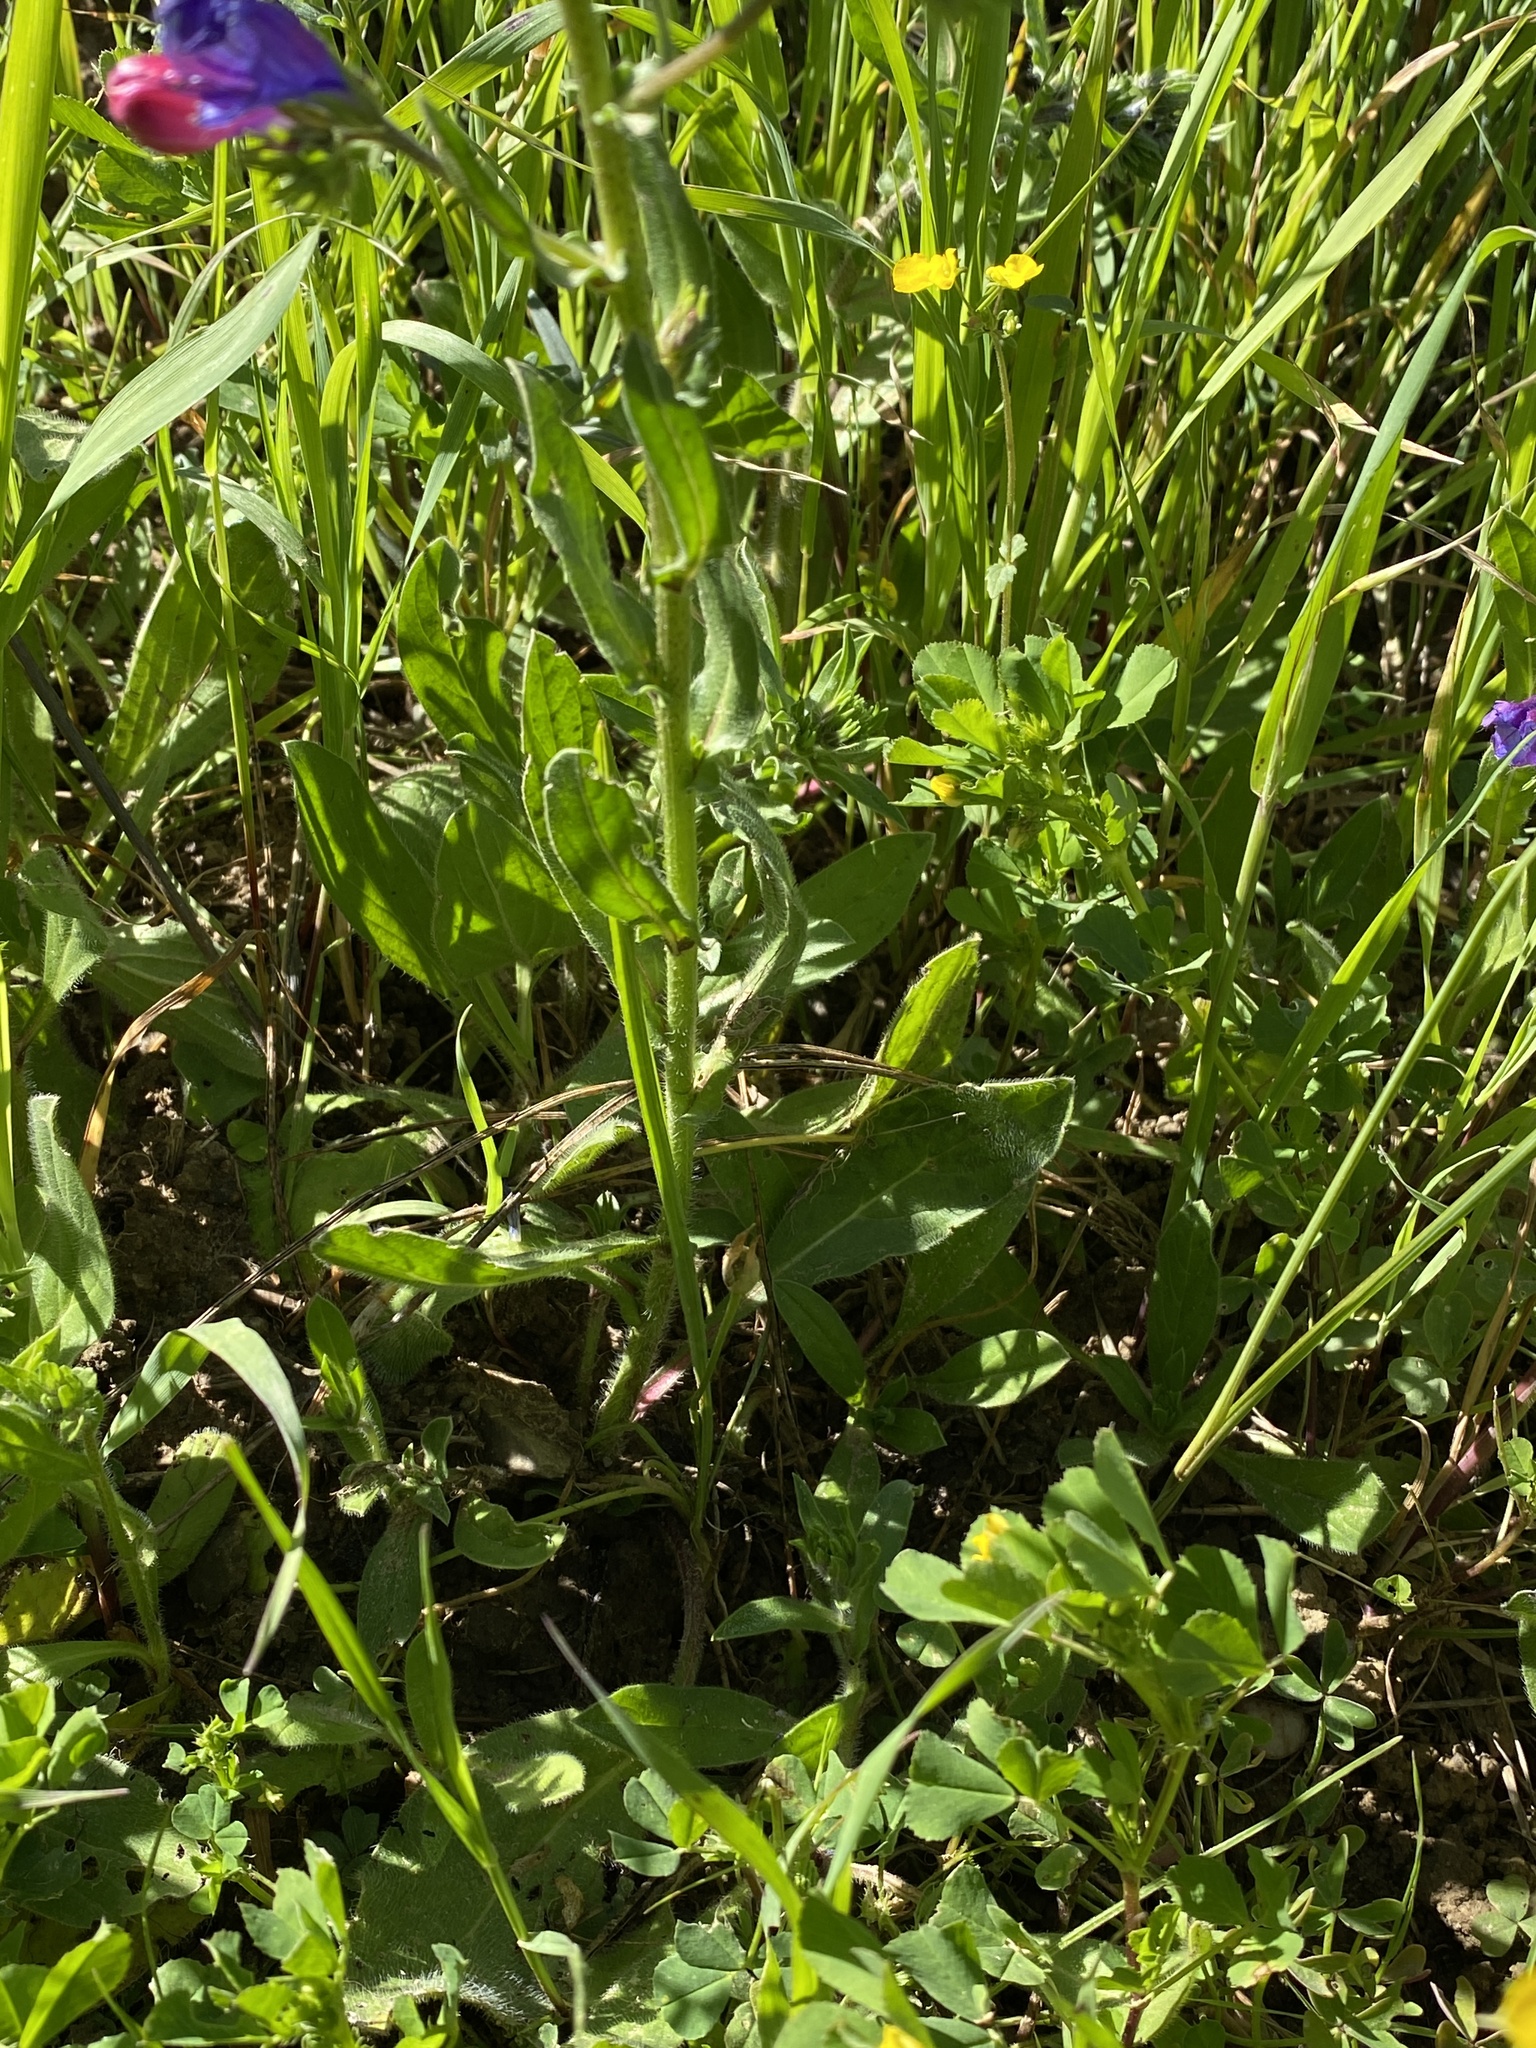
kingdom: Plantae
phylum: Tracheophyta
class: Magnoliopsida
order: Boraginales
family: Boraginaceae
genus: Echium
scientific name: Echium plantagineum
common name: Purple viper's-bugloss
